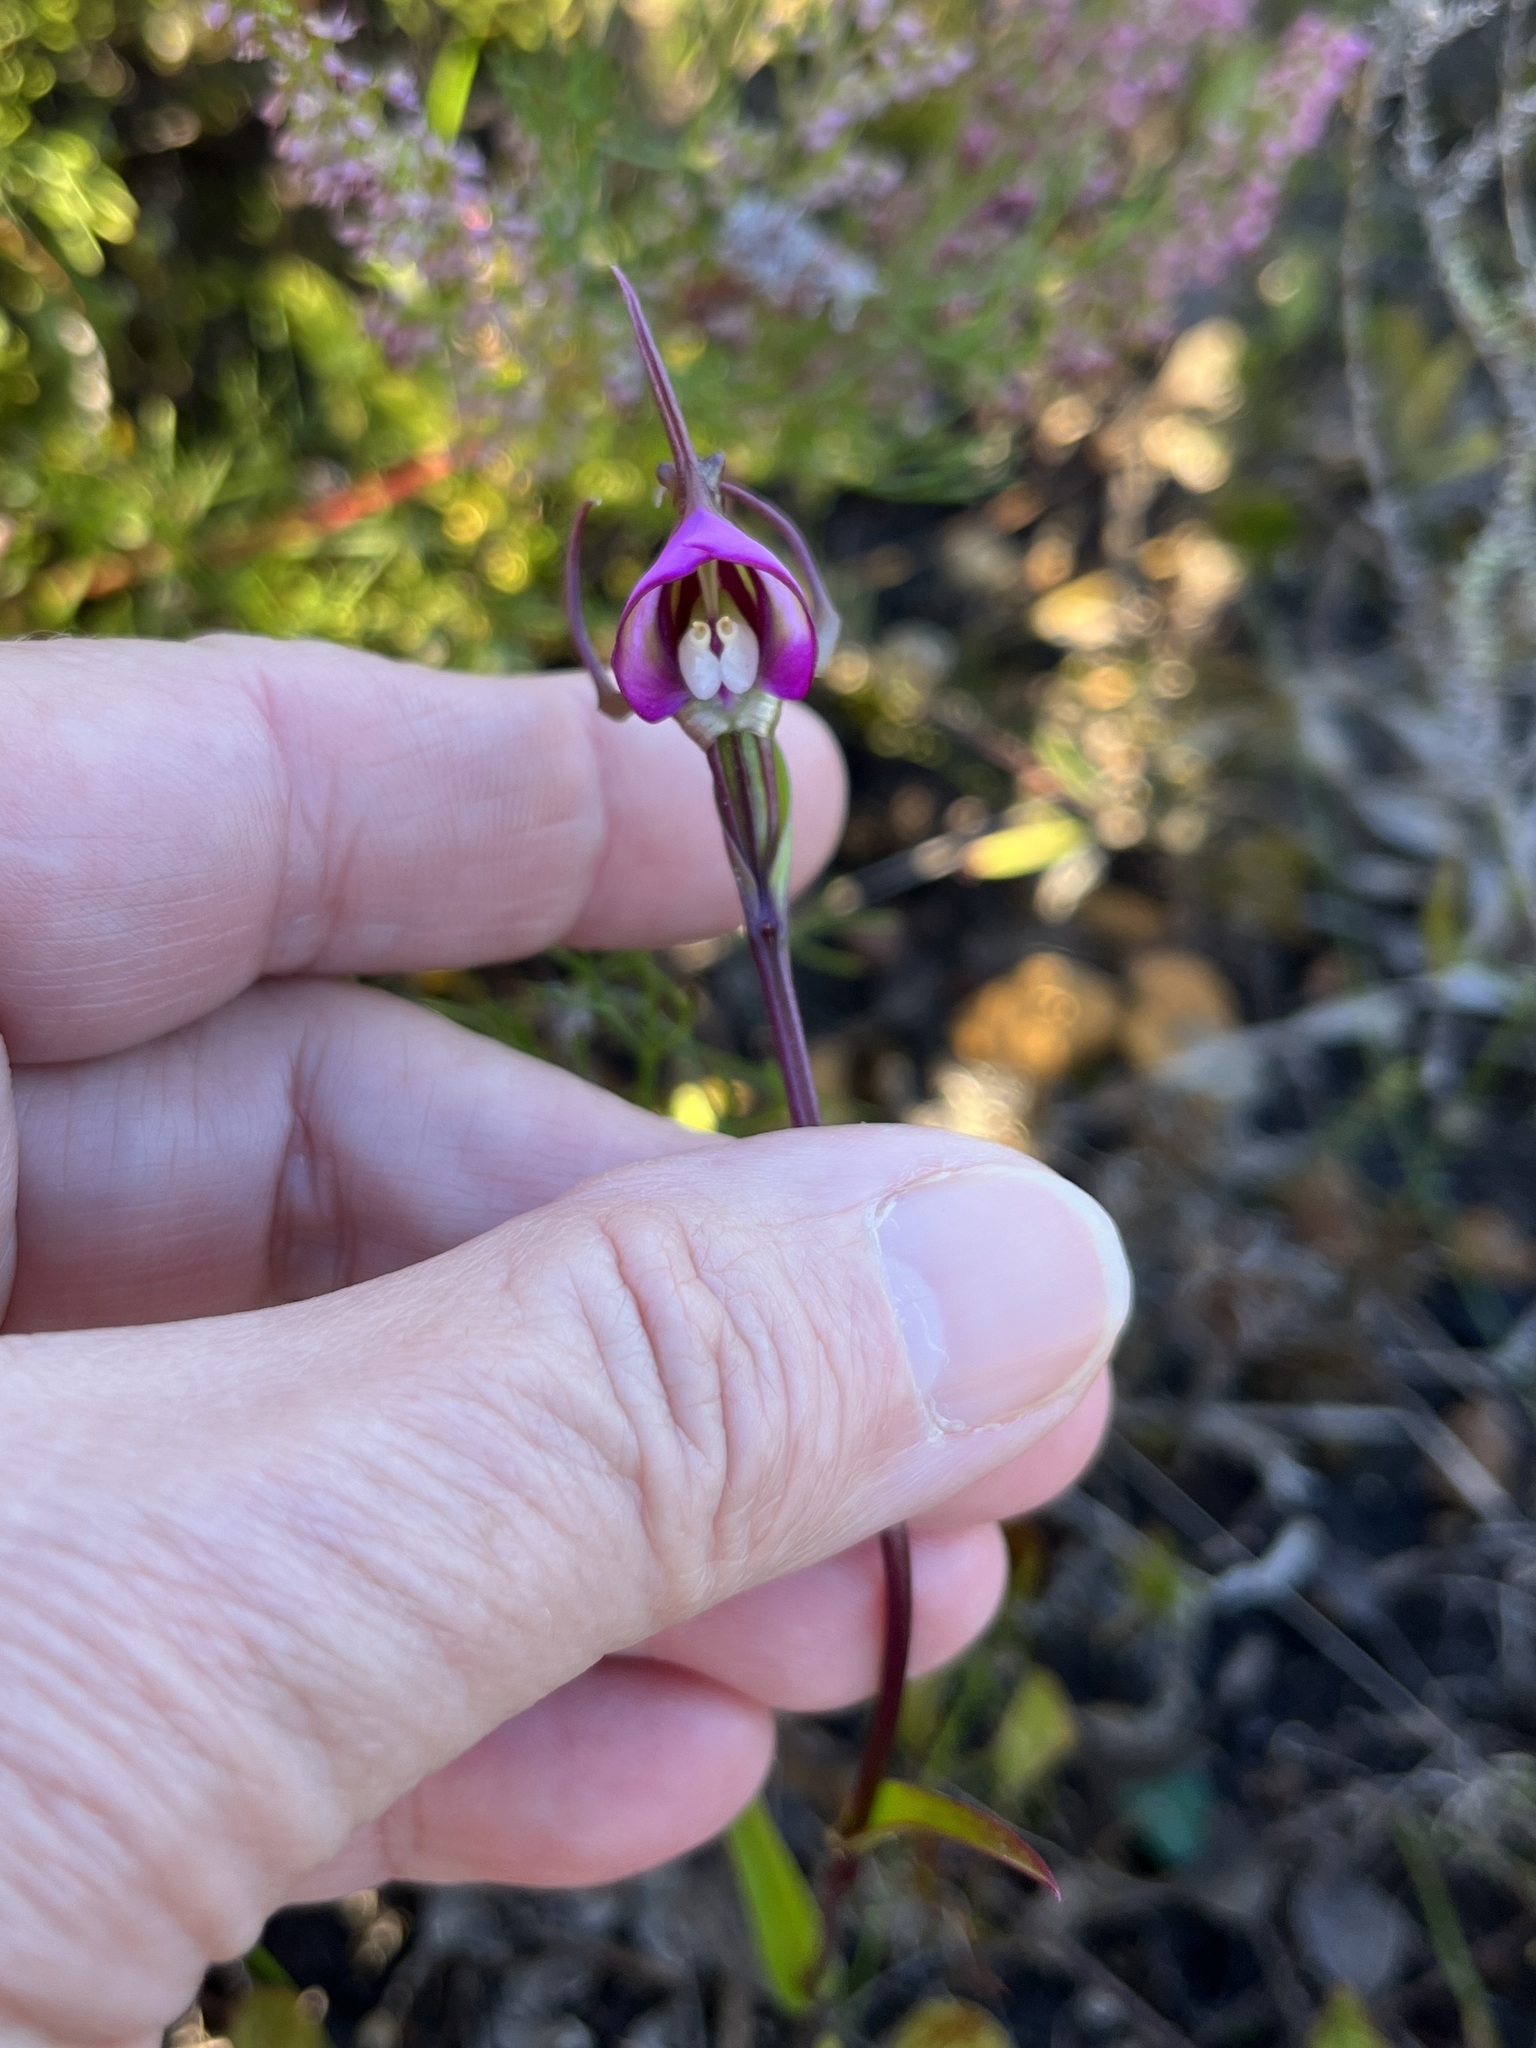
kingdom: Plantae
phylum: Tracheophyta
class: Liliopsida
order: Asparagales
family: Orchidaceae
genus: Disperis
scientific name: Disperis capensis
